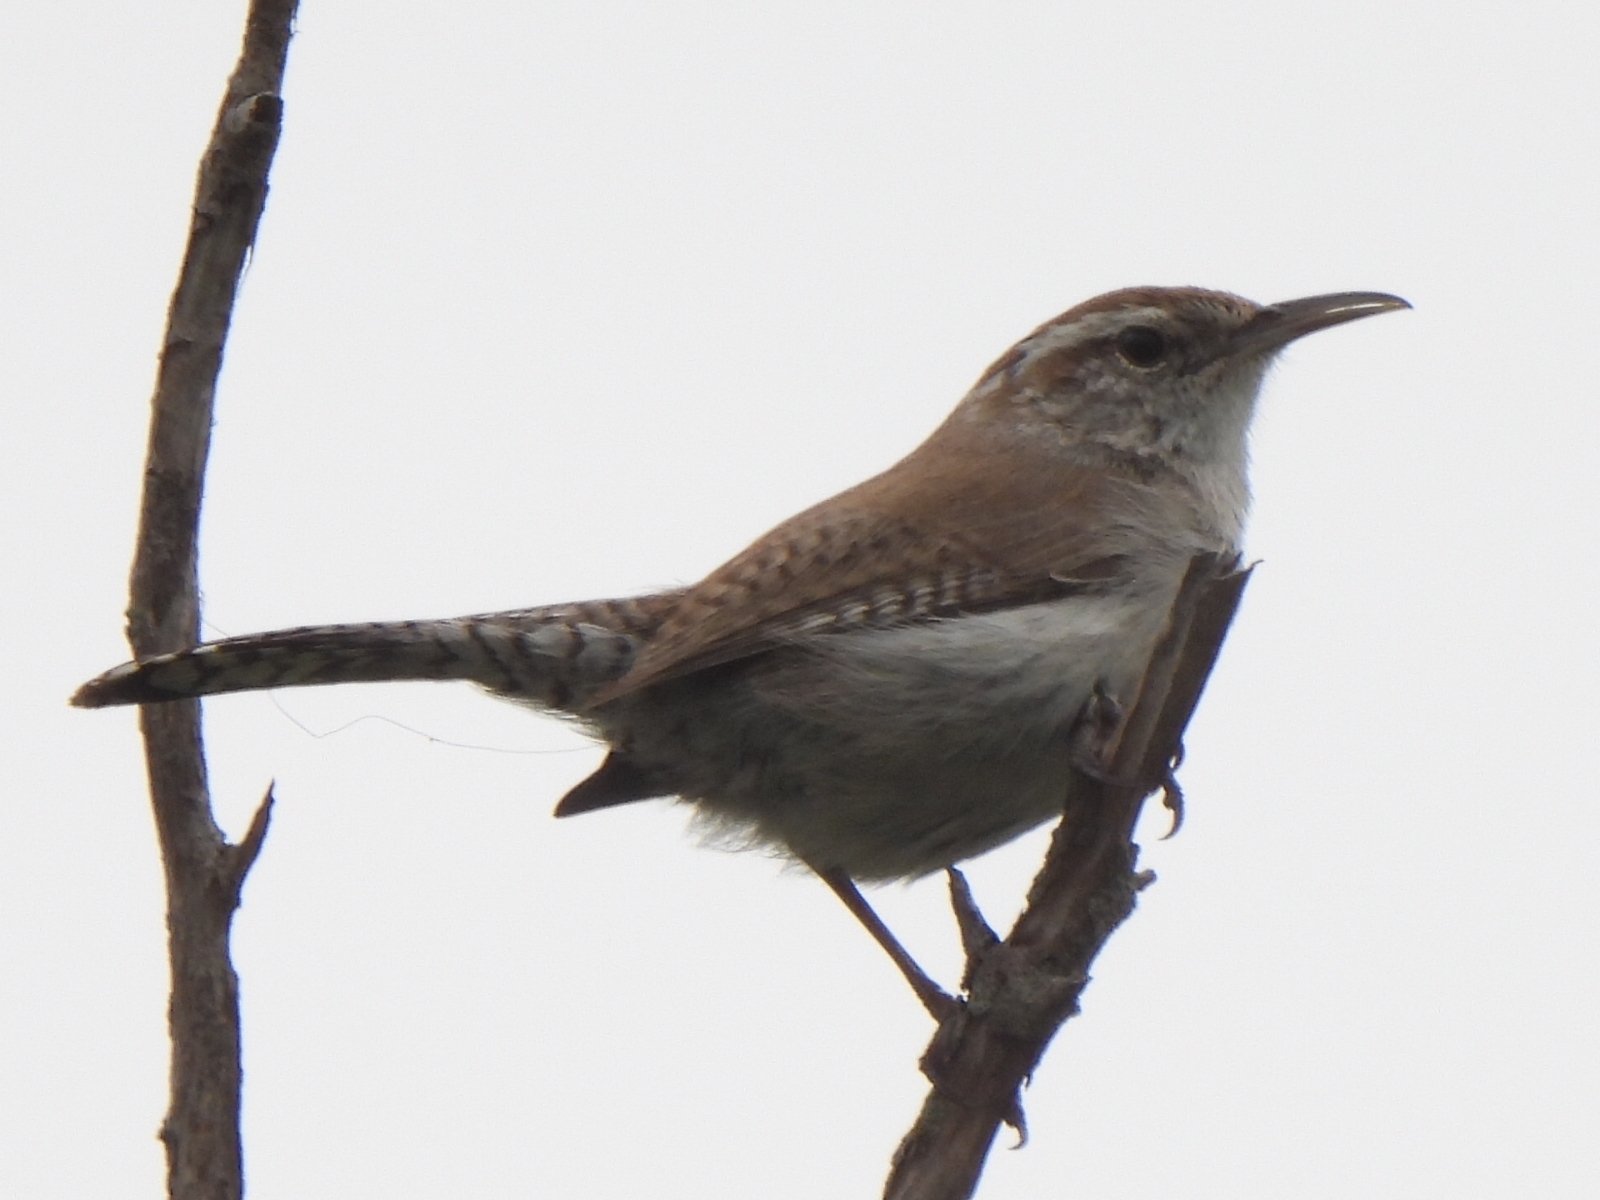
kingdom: Animalia
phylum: Chordata
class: Aves
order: Passeriformes
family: Troglodytidae
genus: Thryomanes
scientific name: Thryomanes bewickii
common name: Bewick's wren
